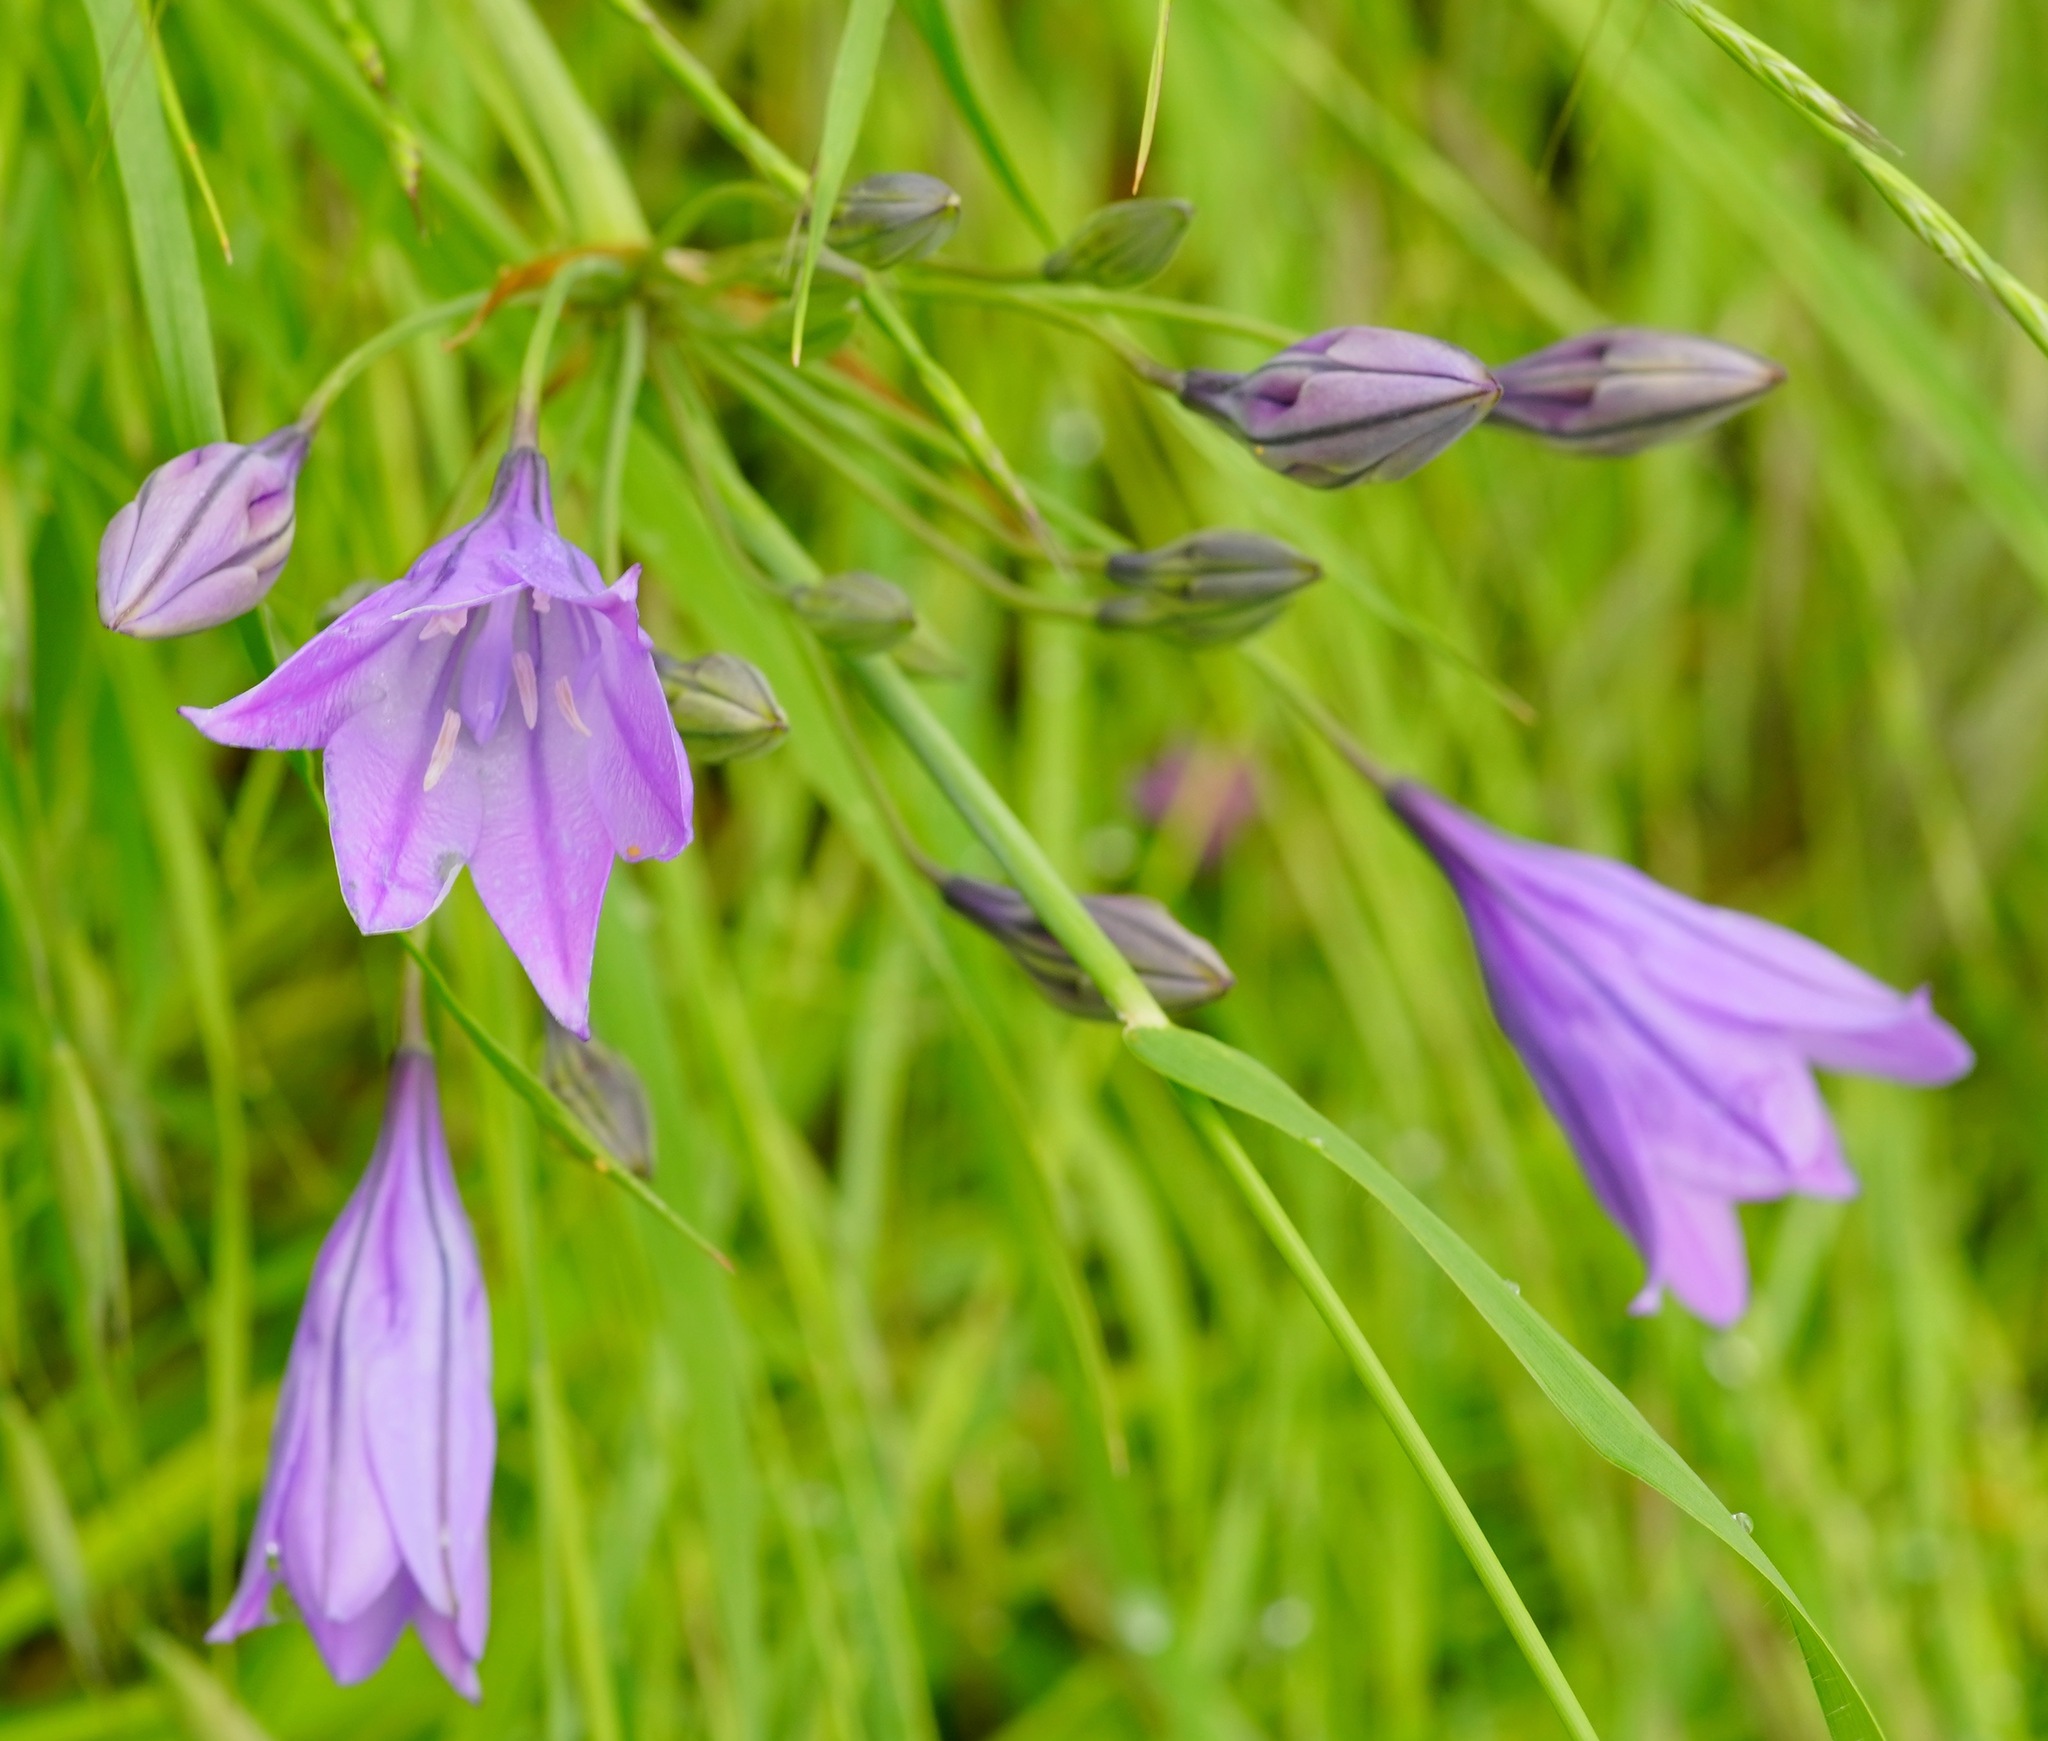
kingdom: Plantae
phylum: Tracheophyta
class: Liliopsida
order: Asparagales
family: Asparagaceae
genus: Triteleia
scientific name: Triteleia laxa
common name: Triplet-lily
